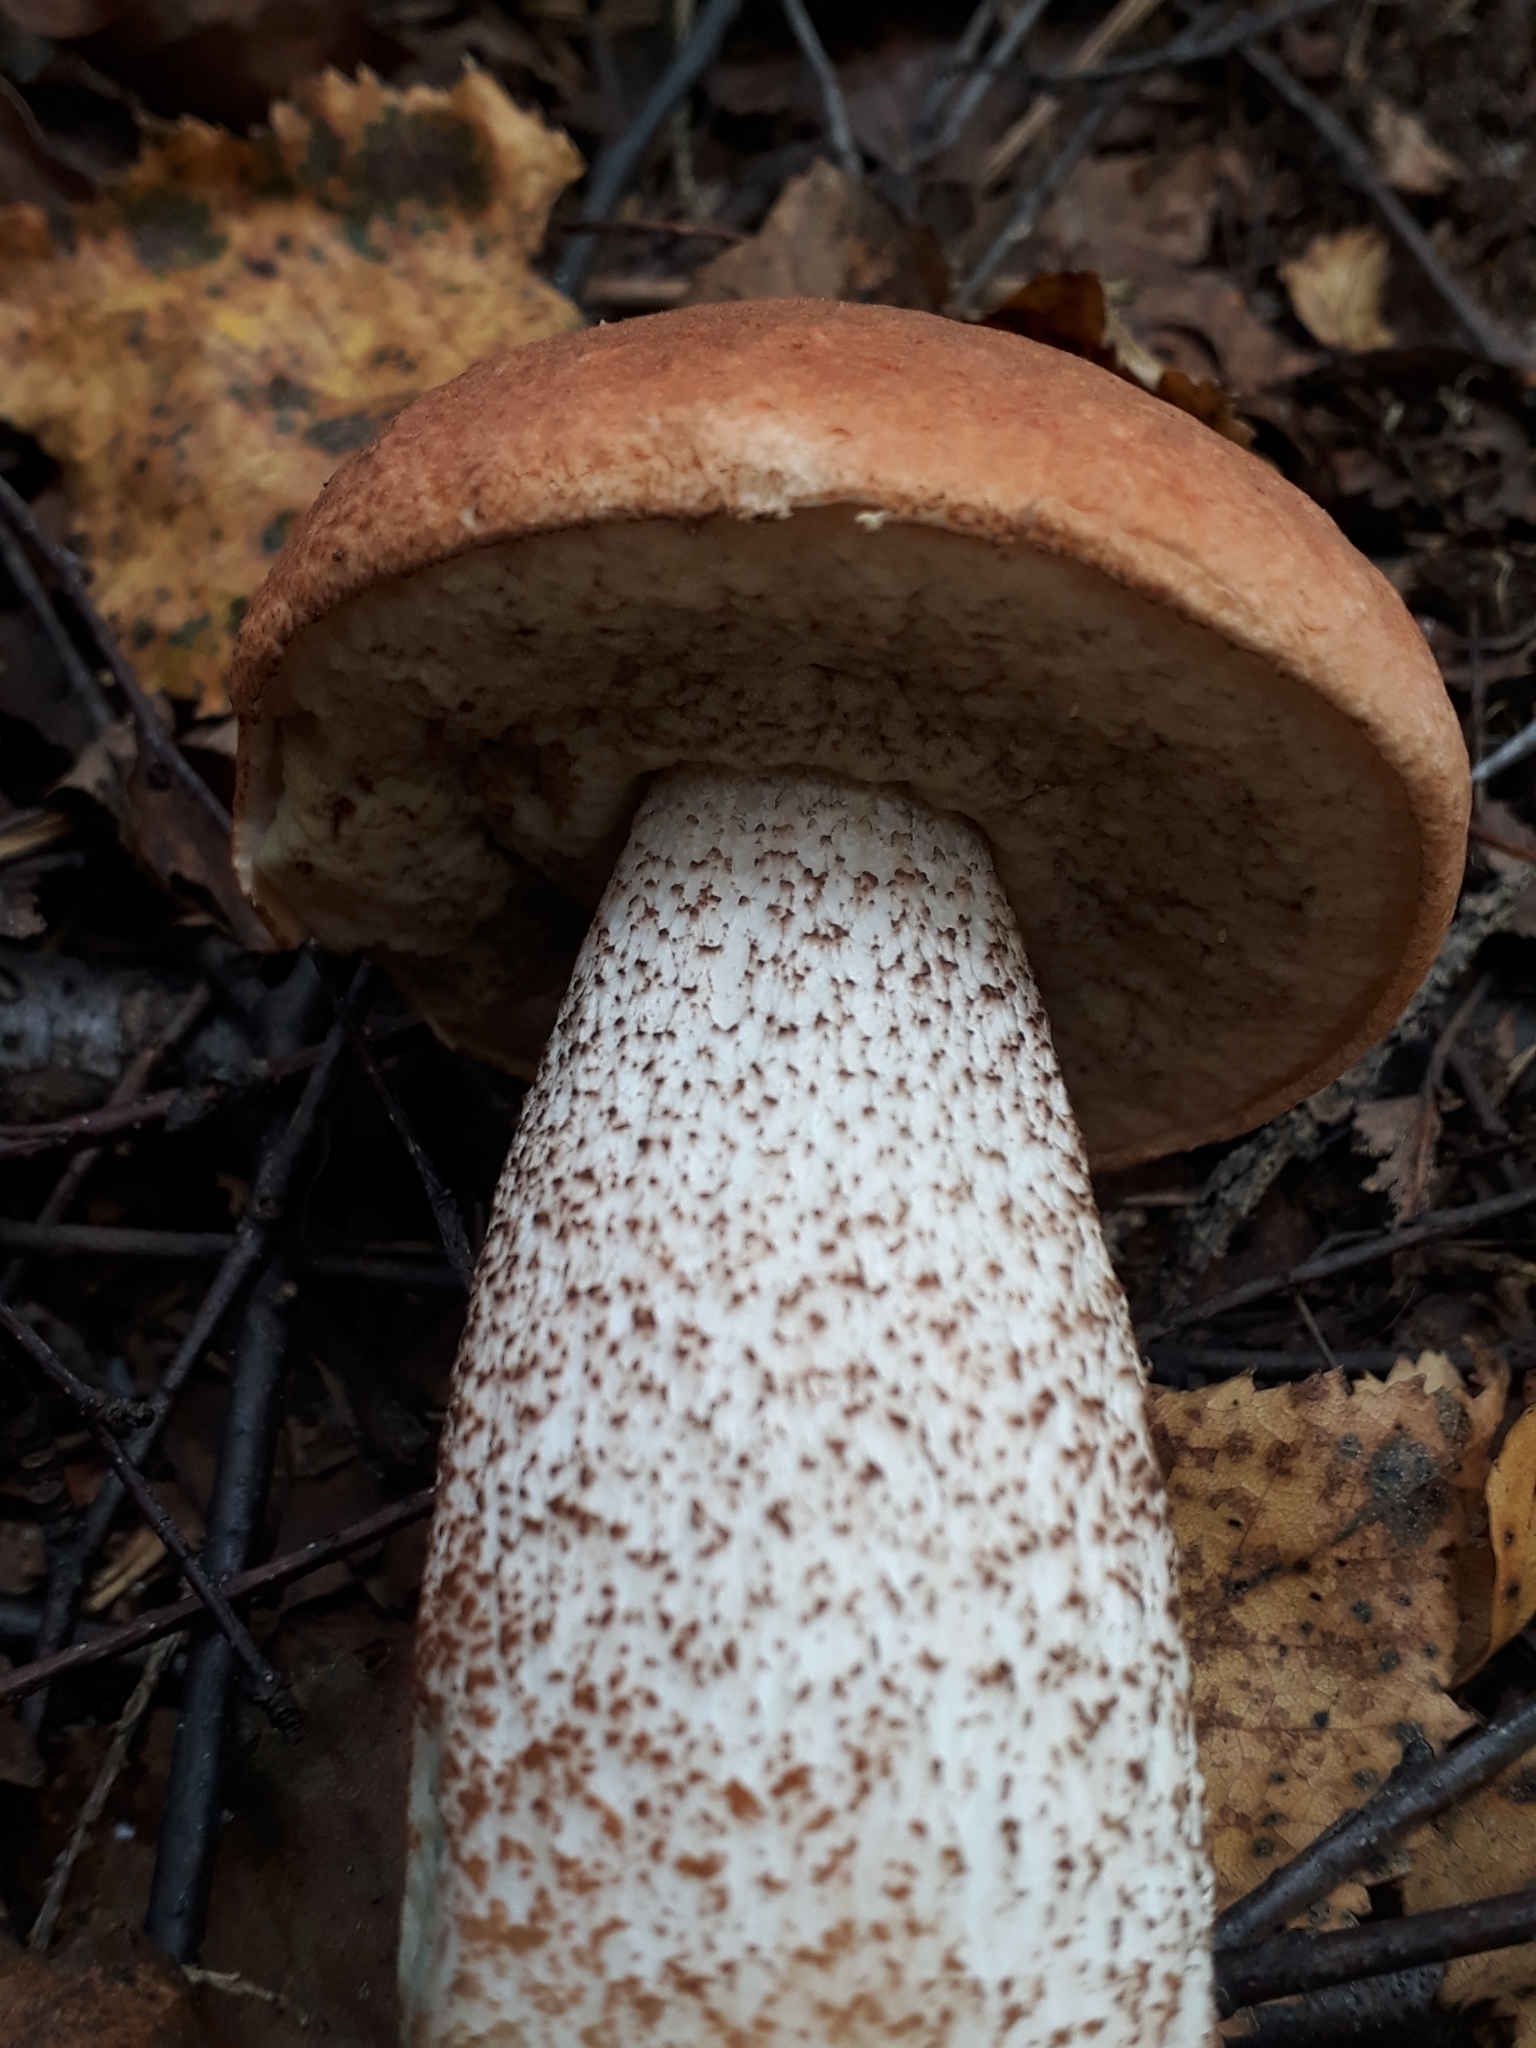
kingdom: Fungi
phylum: Basidiomycota
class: Agaricomycetes
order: Boletales
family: Boletaceae
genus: Leccinum
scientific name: Leccinum aurantiacum
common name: Orange bolete
